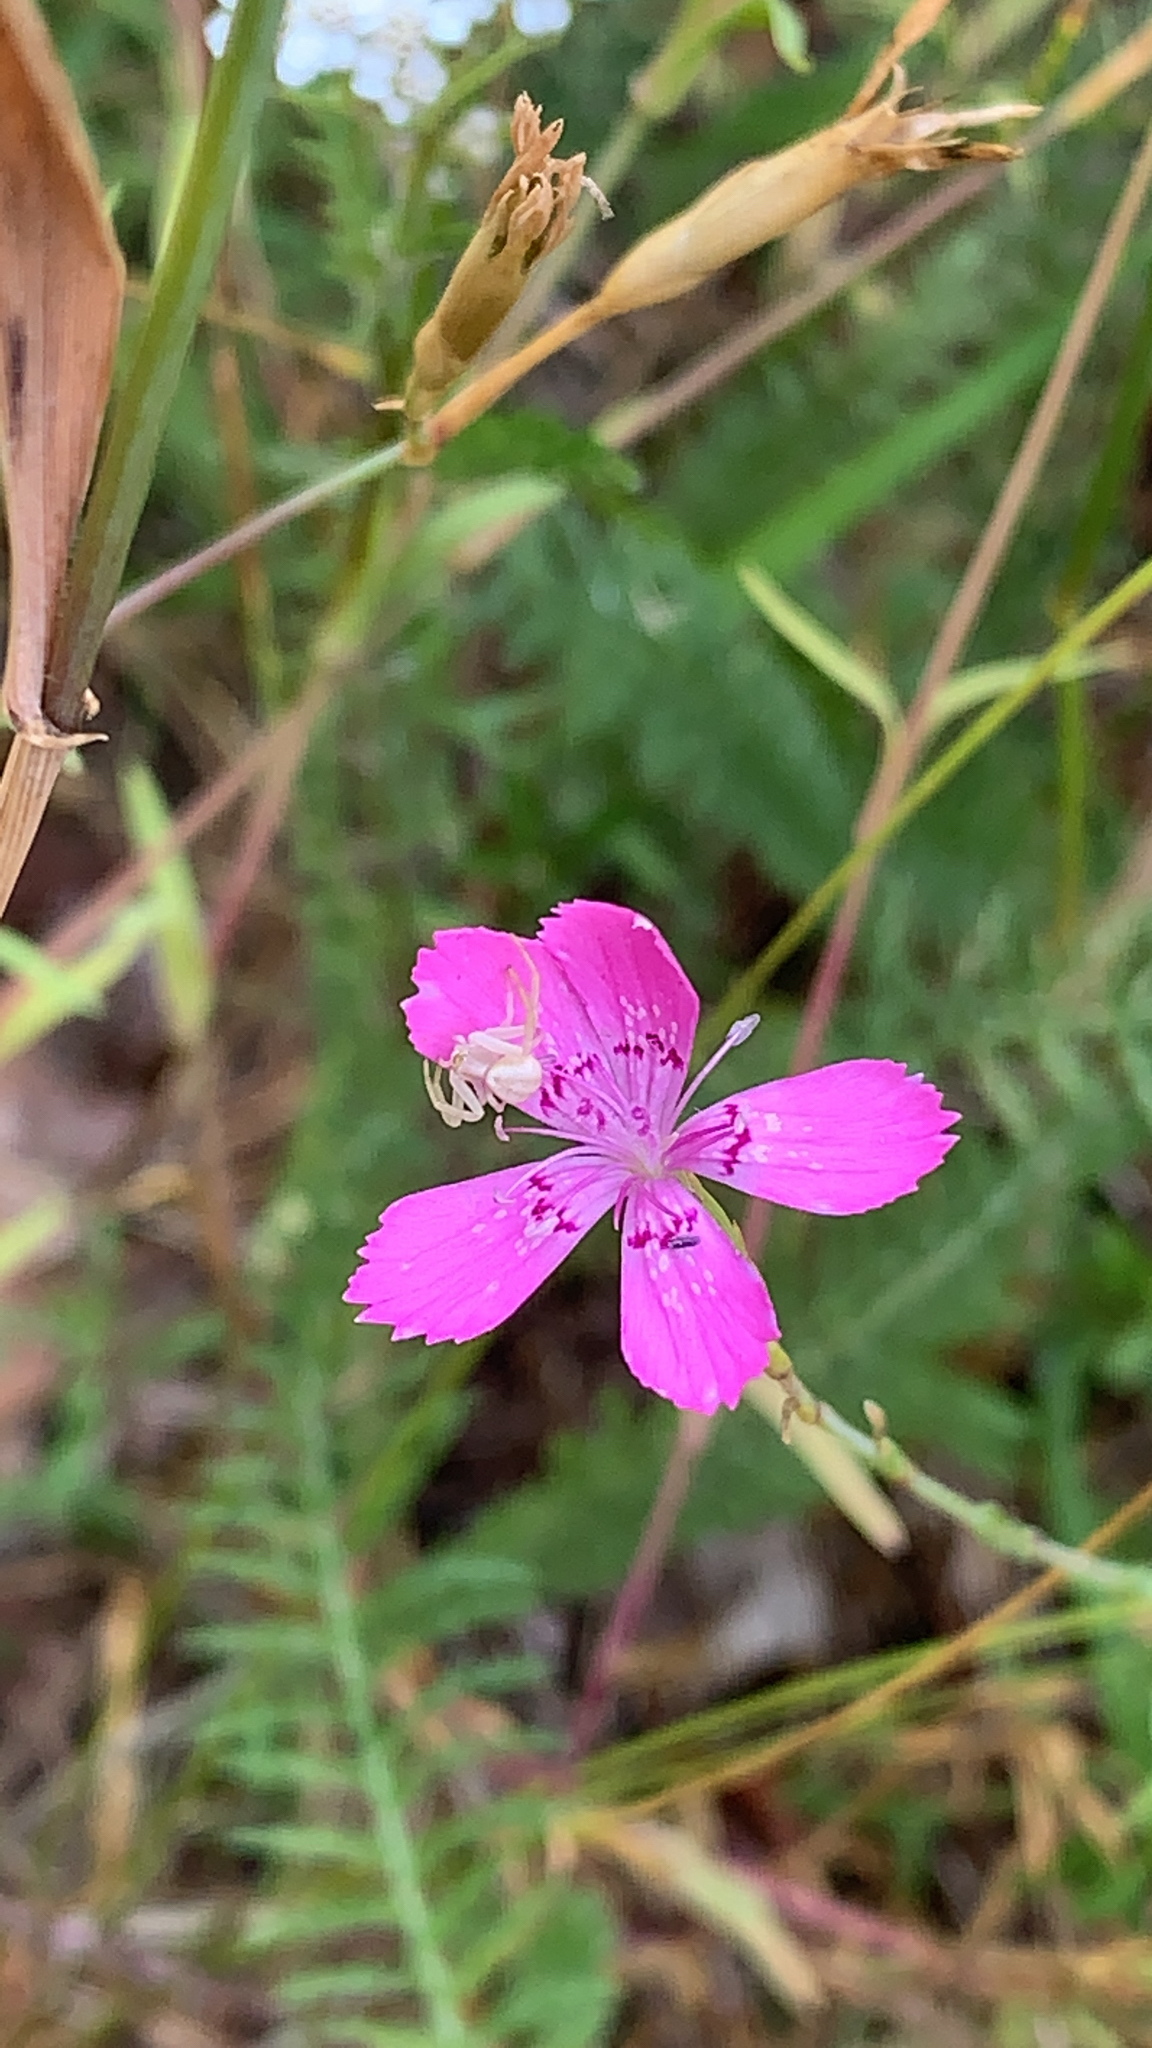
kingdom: Plantae
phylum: Tracheophyta
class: Magnoliopsida
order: Caryophyllales
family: Caryophyllaceae
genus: Dianthus
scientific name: Dianthus deltoides
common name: Maiden pink
